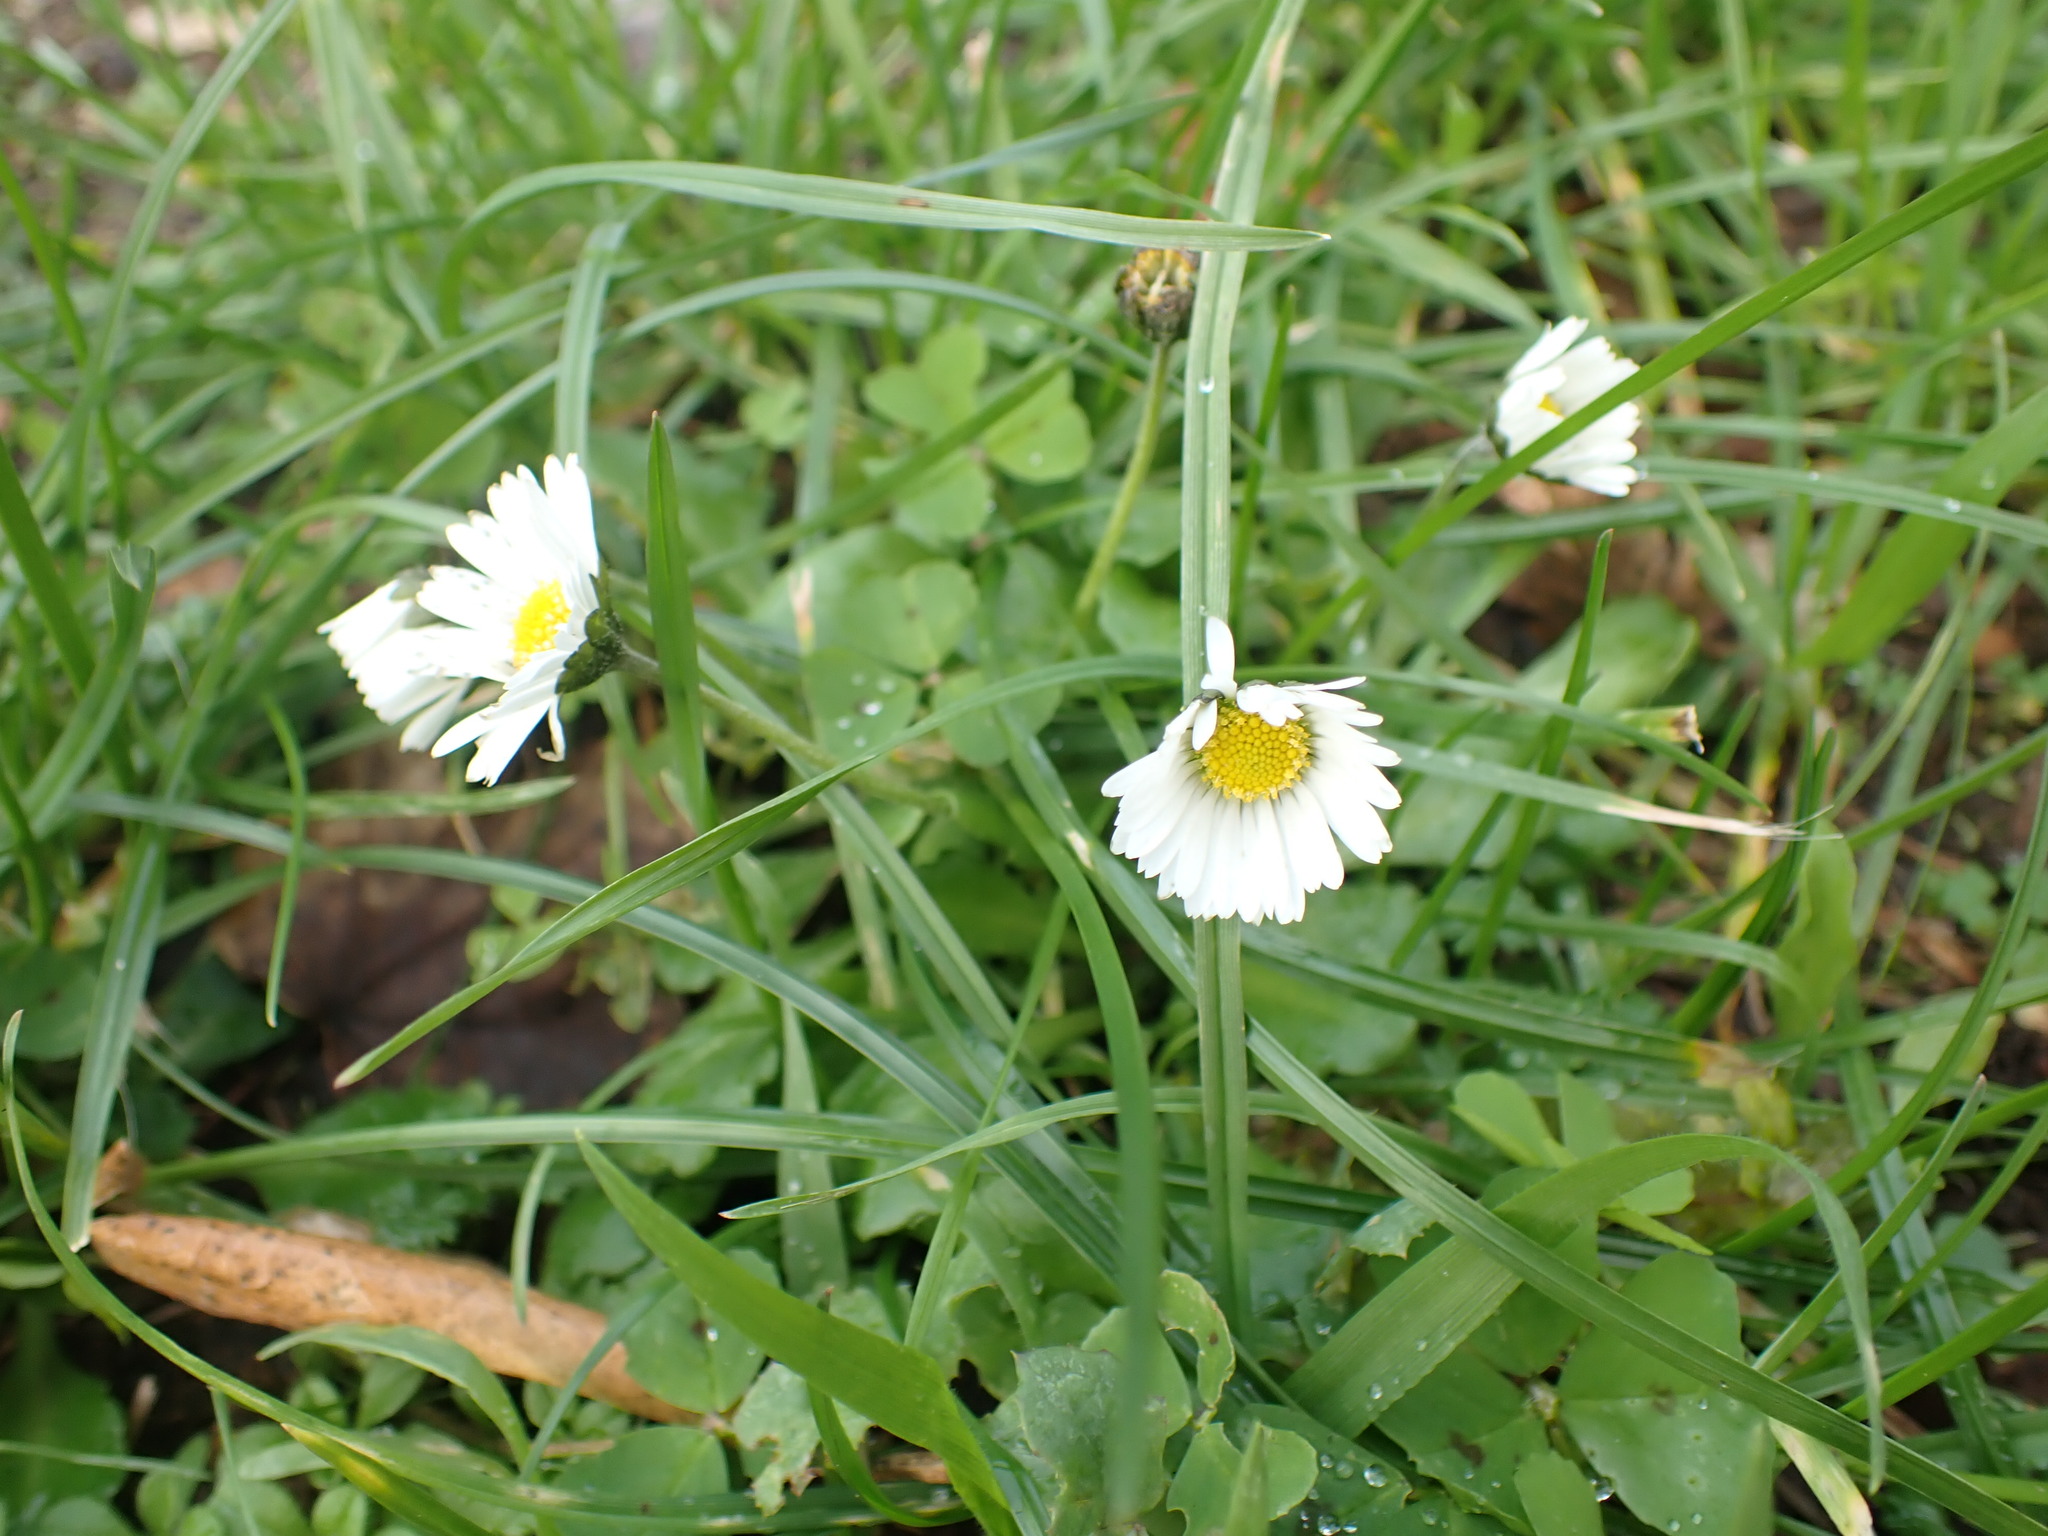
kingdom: Plantae
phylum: Tracheophyta
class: Magnoliopsida
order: Asterales
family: Asteraceae
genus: Bellis
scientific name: Bellis perennis
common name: Lawndaisy
